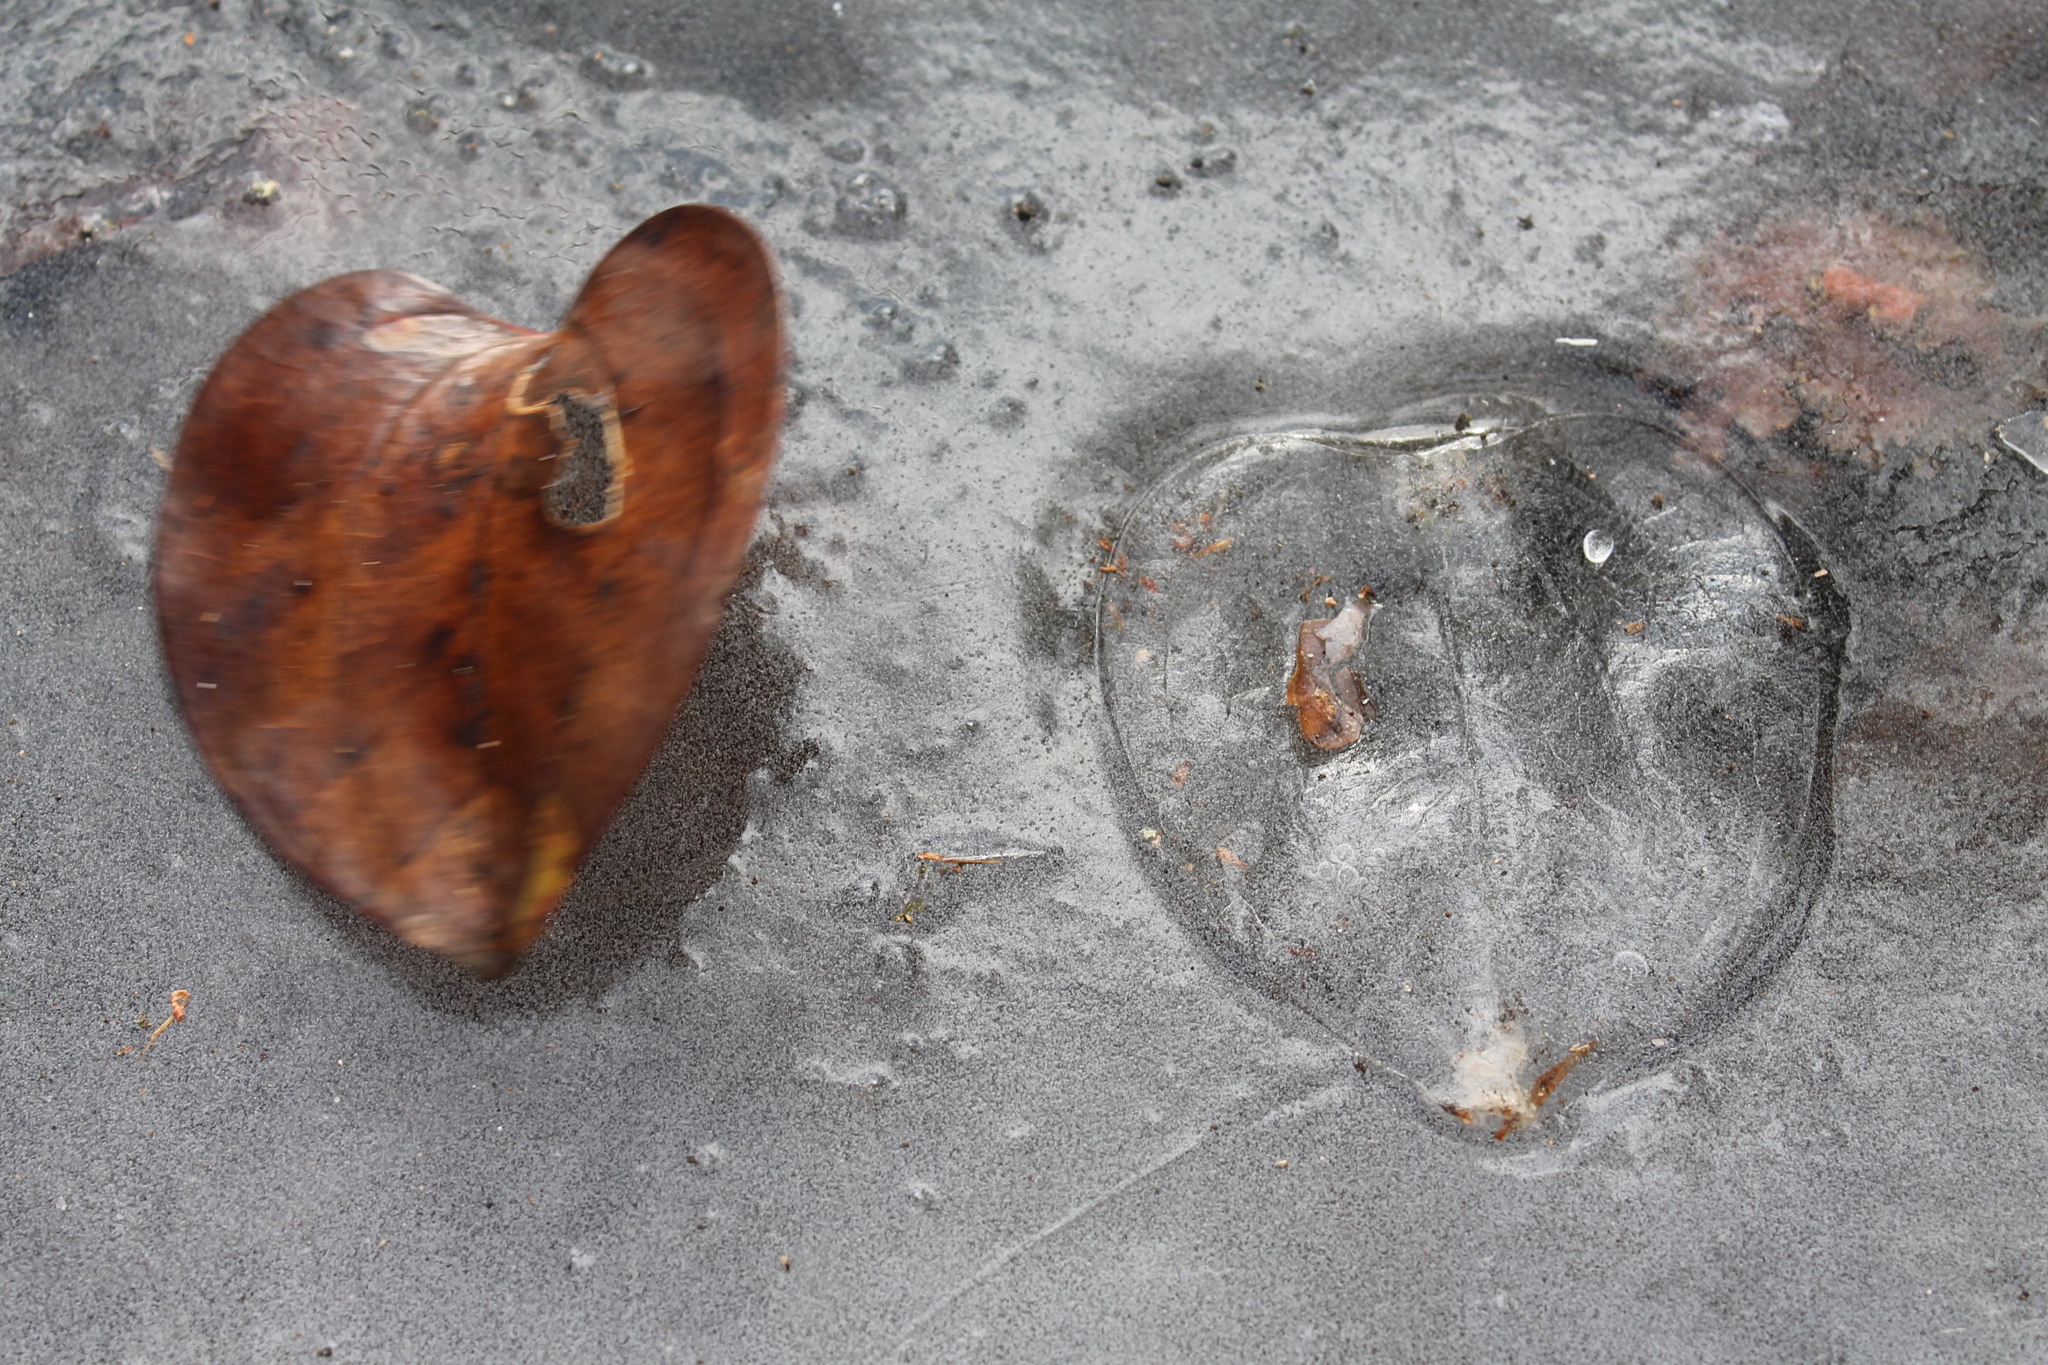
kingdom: Plantae
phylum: Tracheophyta
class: Liliopsida
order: Liliales
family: Smilacaceae
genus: Smilax
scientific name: Smilax rotundifolia
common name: Bullbriar
